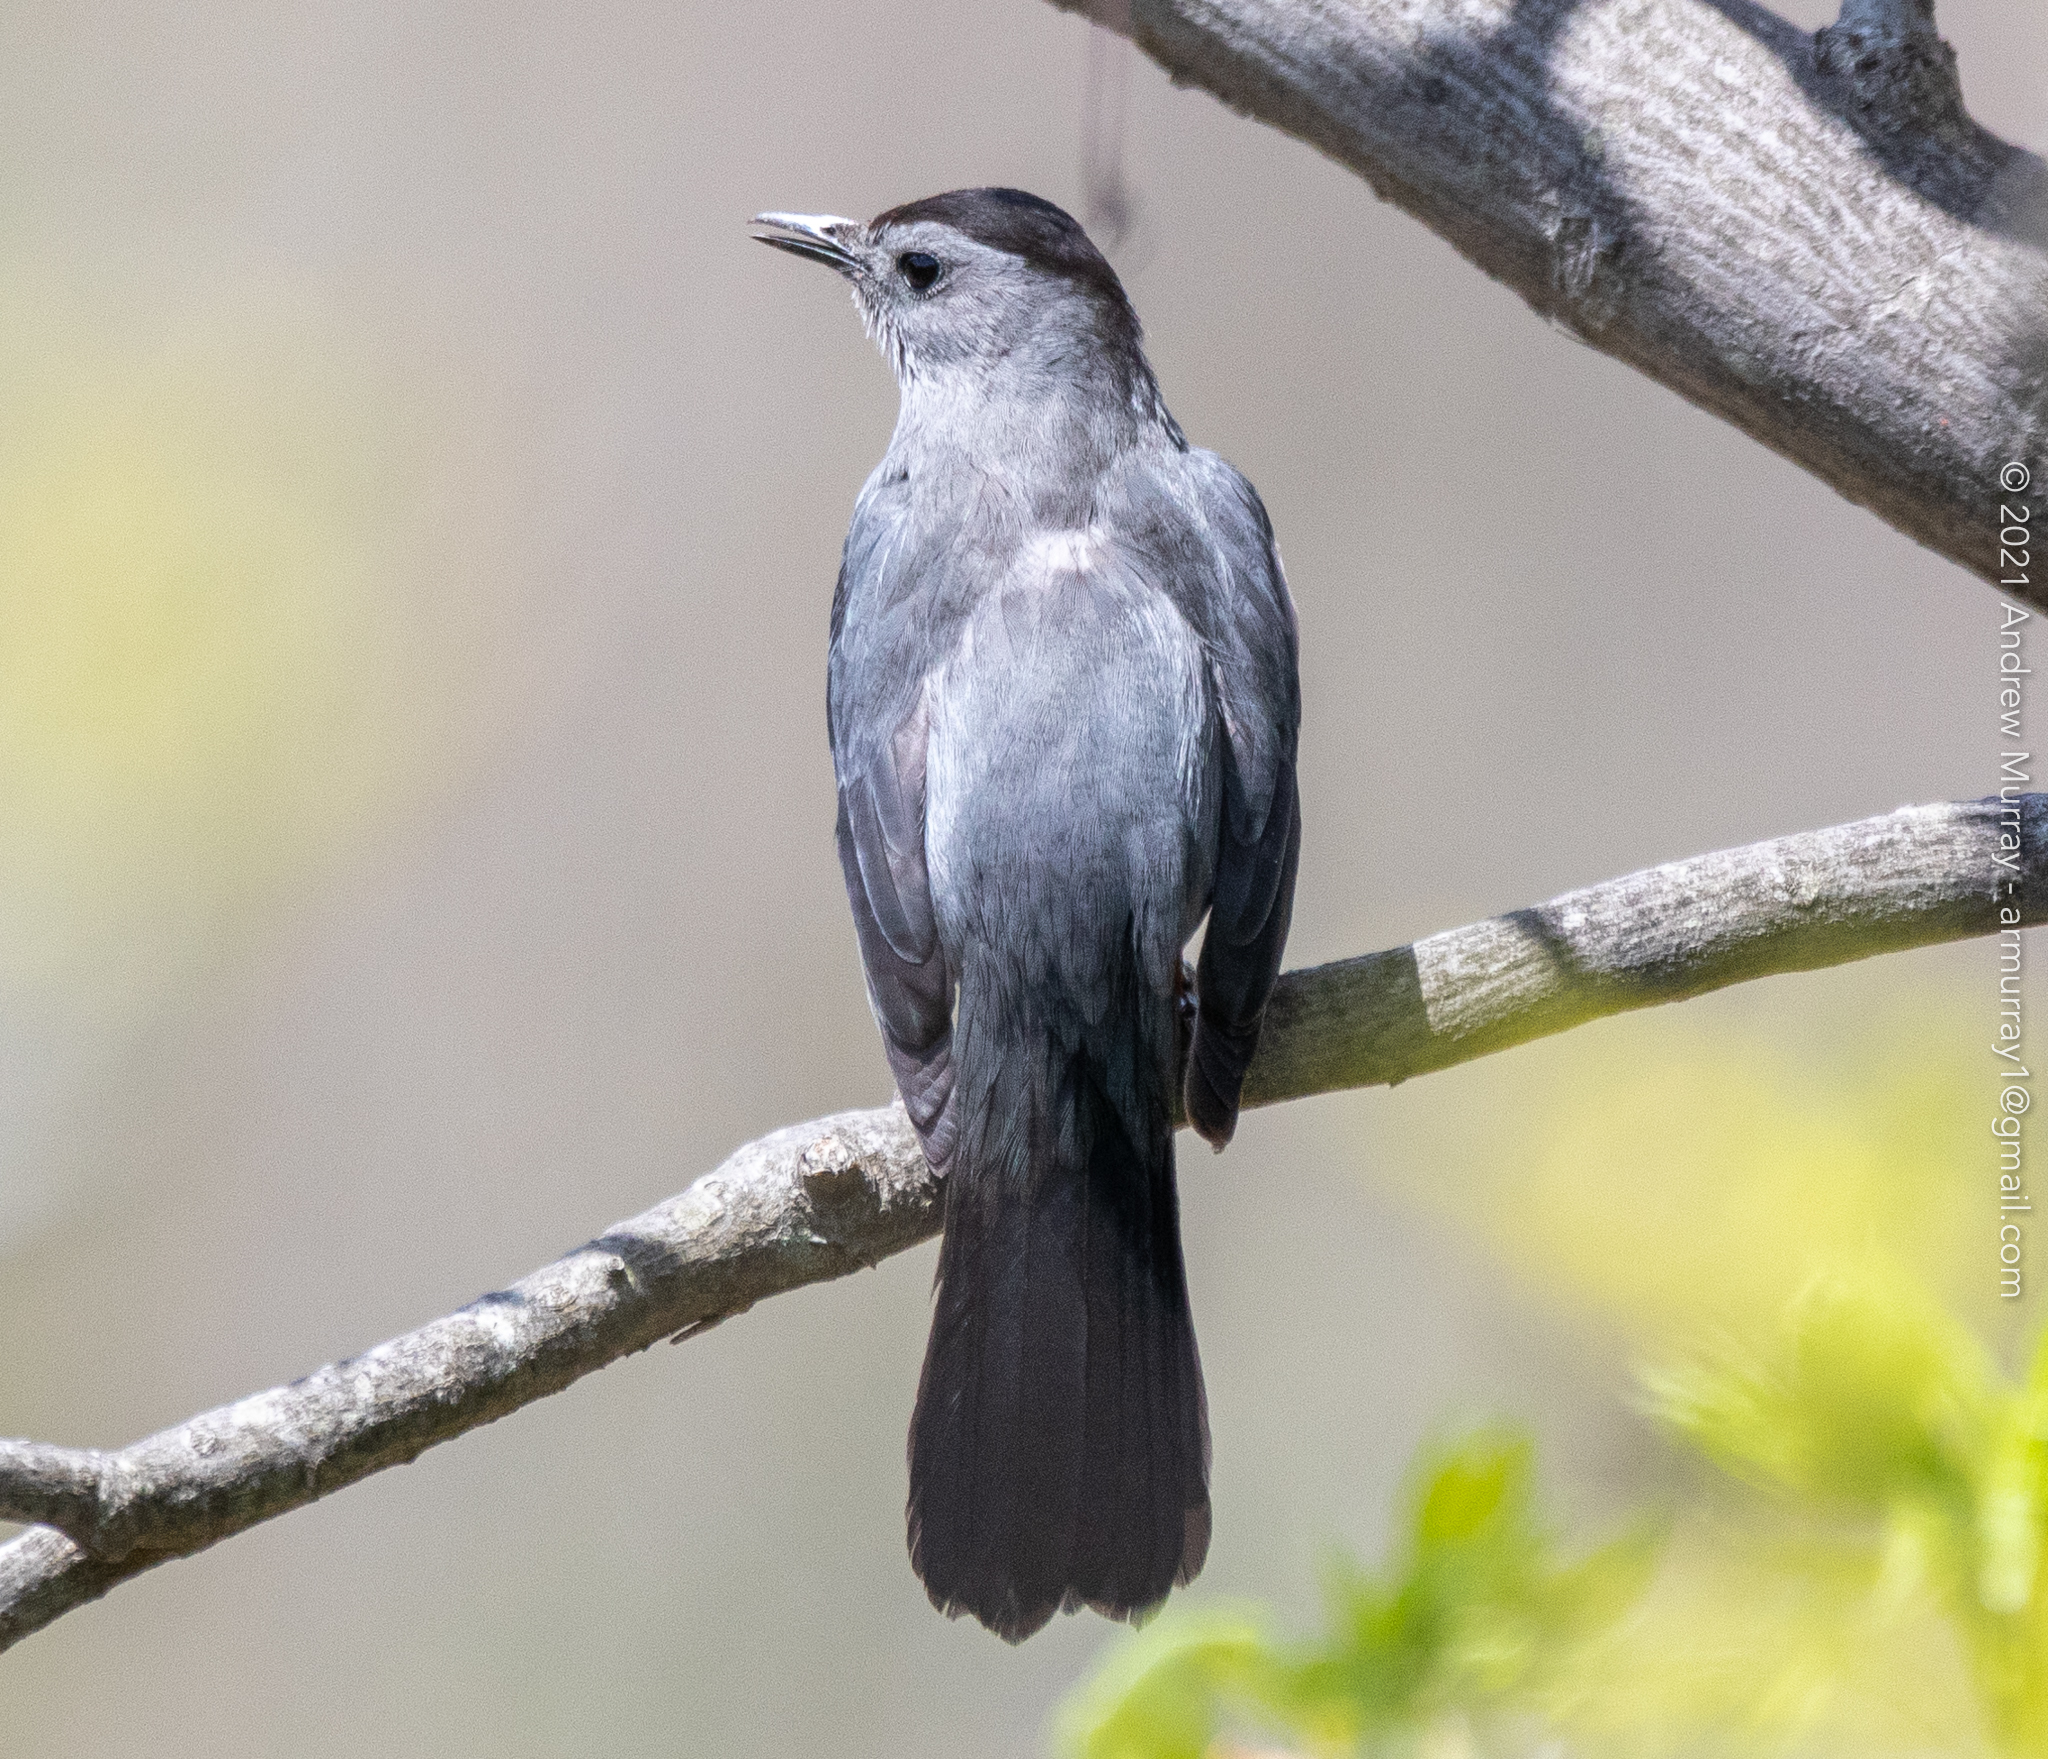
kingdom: Animalia
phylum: Chordata
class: Aves
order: Passeriformes
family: Mimidae
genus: Dumetella
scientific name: Dumetella carolinensis
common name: Gray catbird
